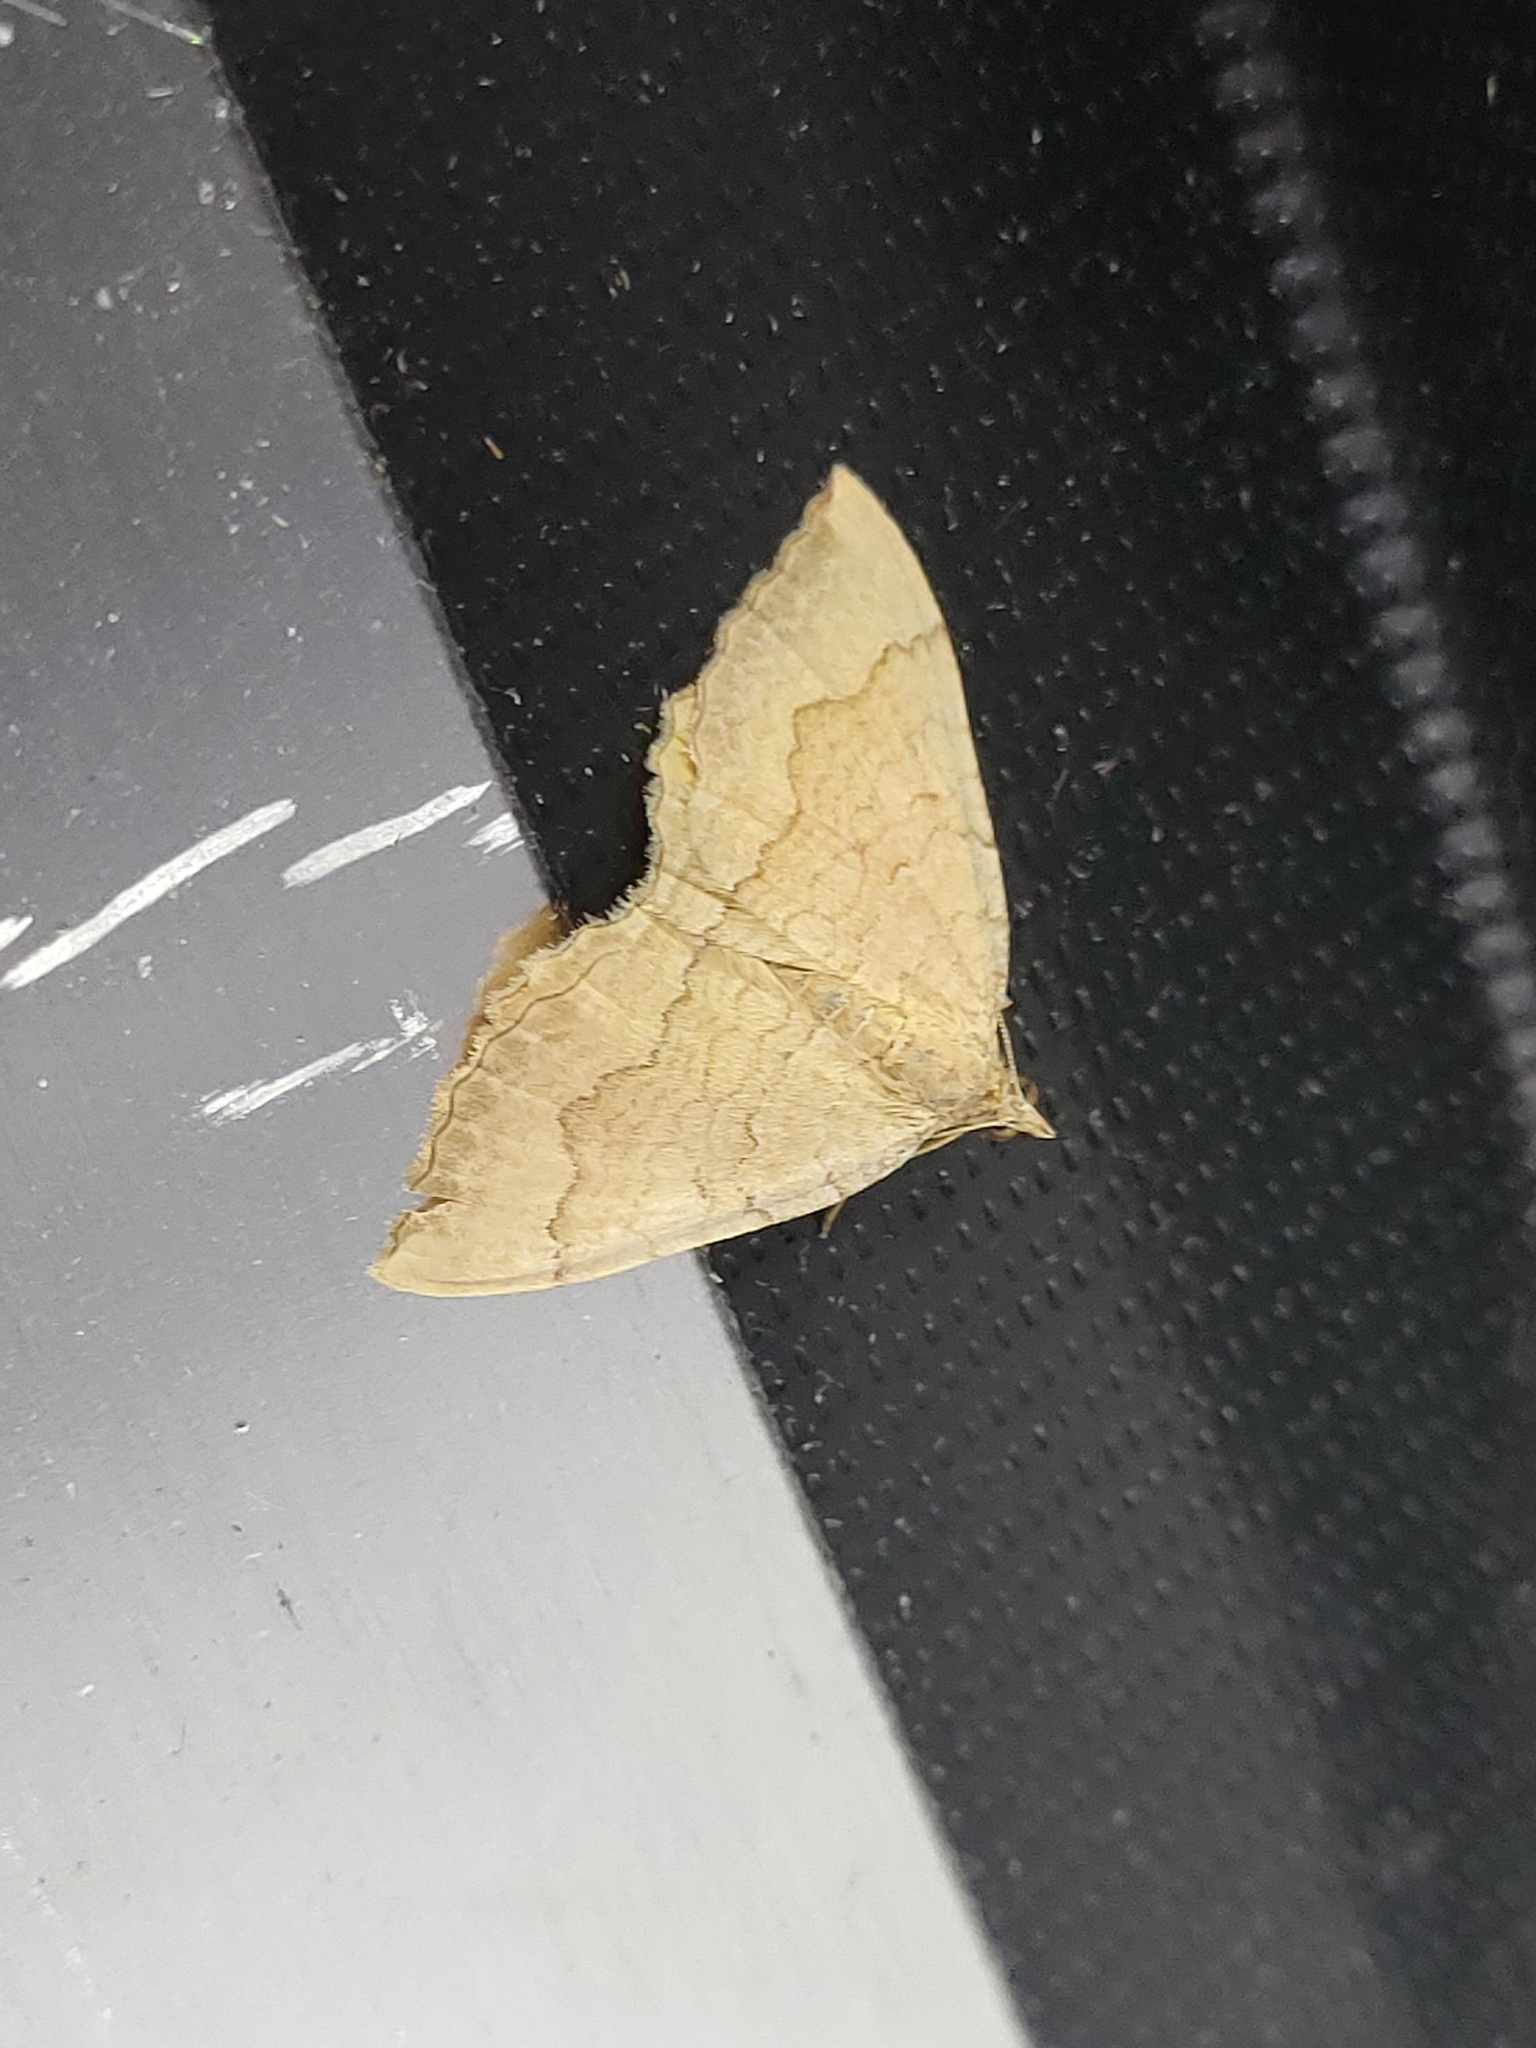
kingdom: Animalia
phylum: Arthropoda
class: Insecta
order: Lepidoptera
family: Geometridae
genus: Camptogramma
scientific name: Camptogramma bilineata
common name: Yellow shell
